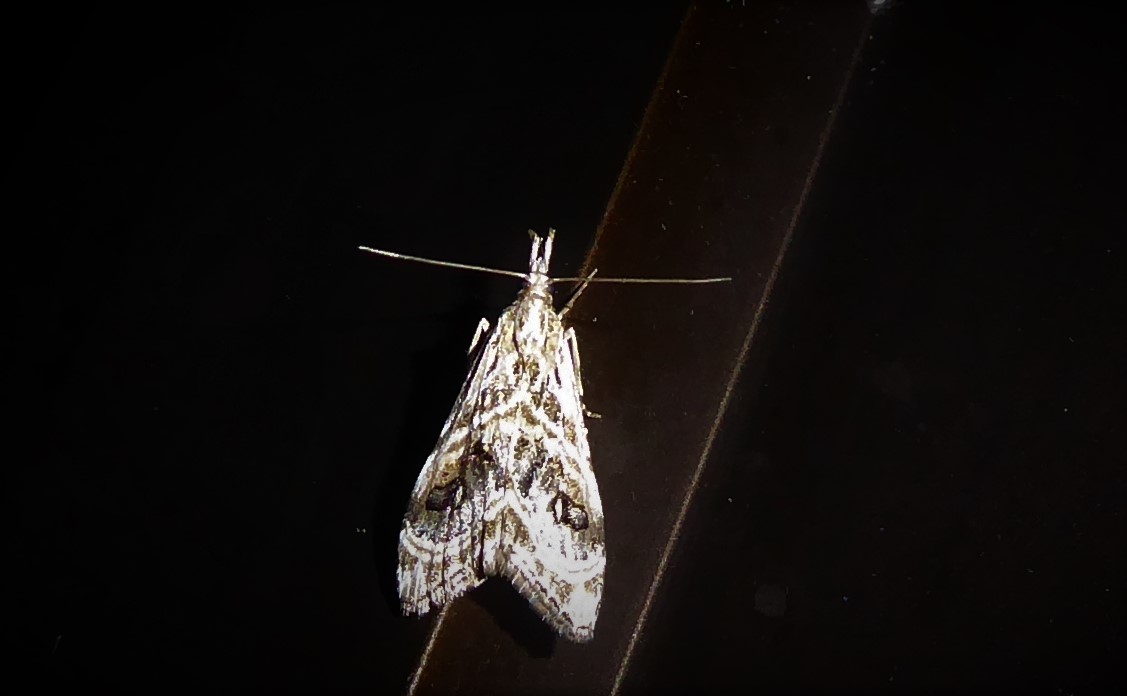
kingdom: Animalia
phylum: Arthropoda
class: Insecta
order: Lepidoptera
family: Crambidae
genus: Gadira
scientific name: Gadira acerella
